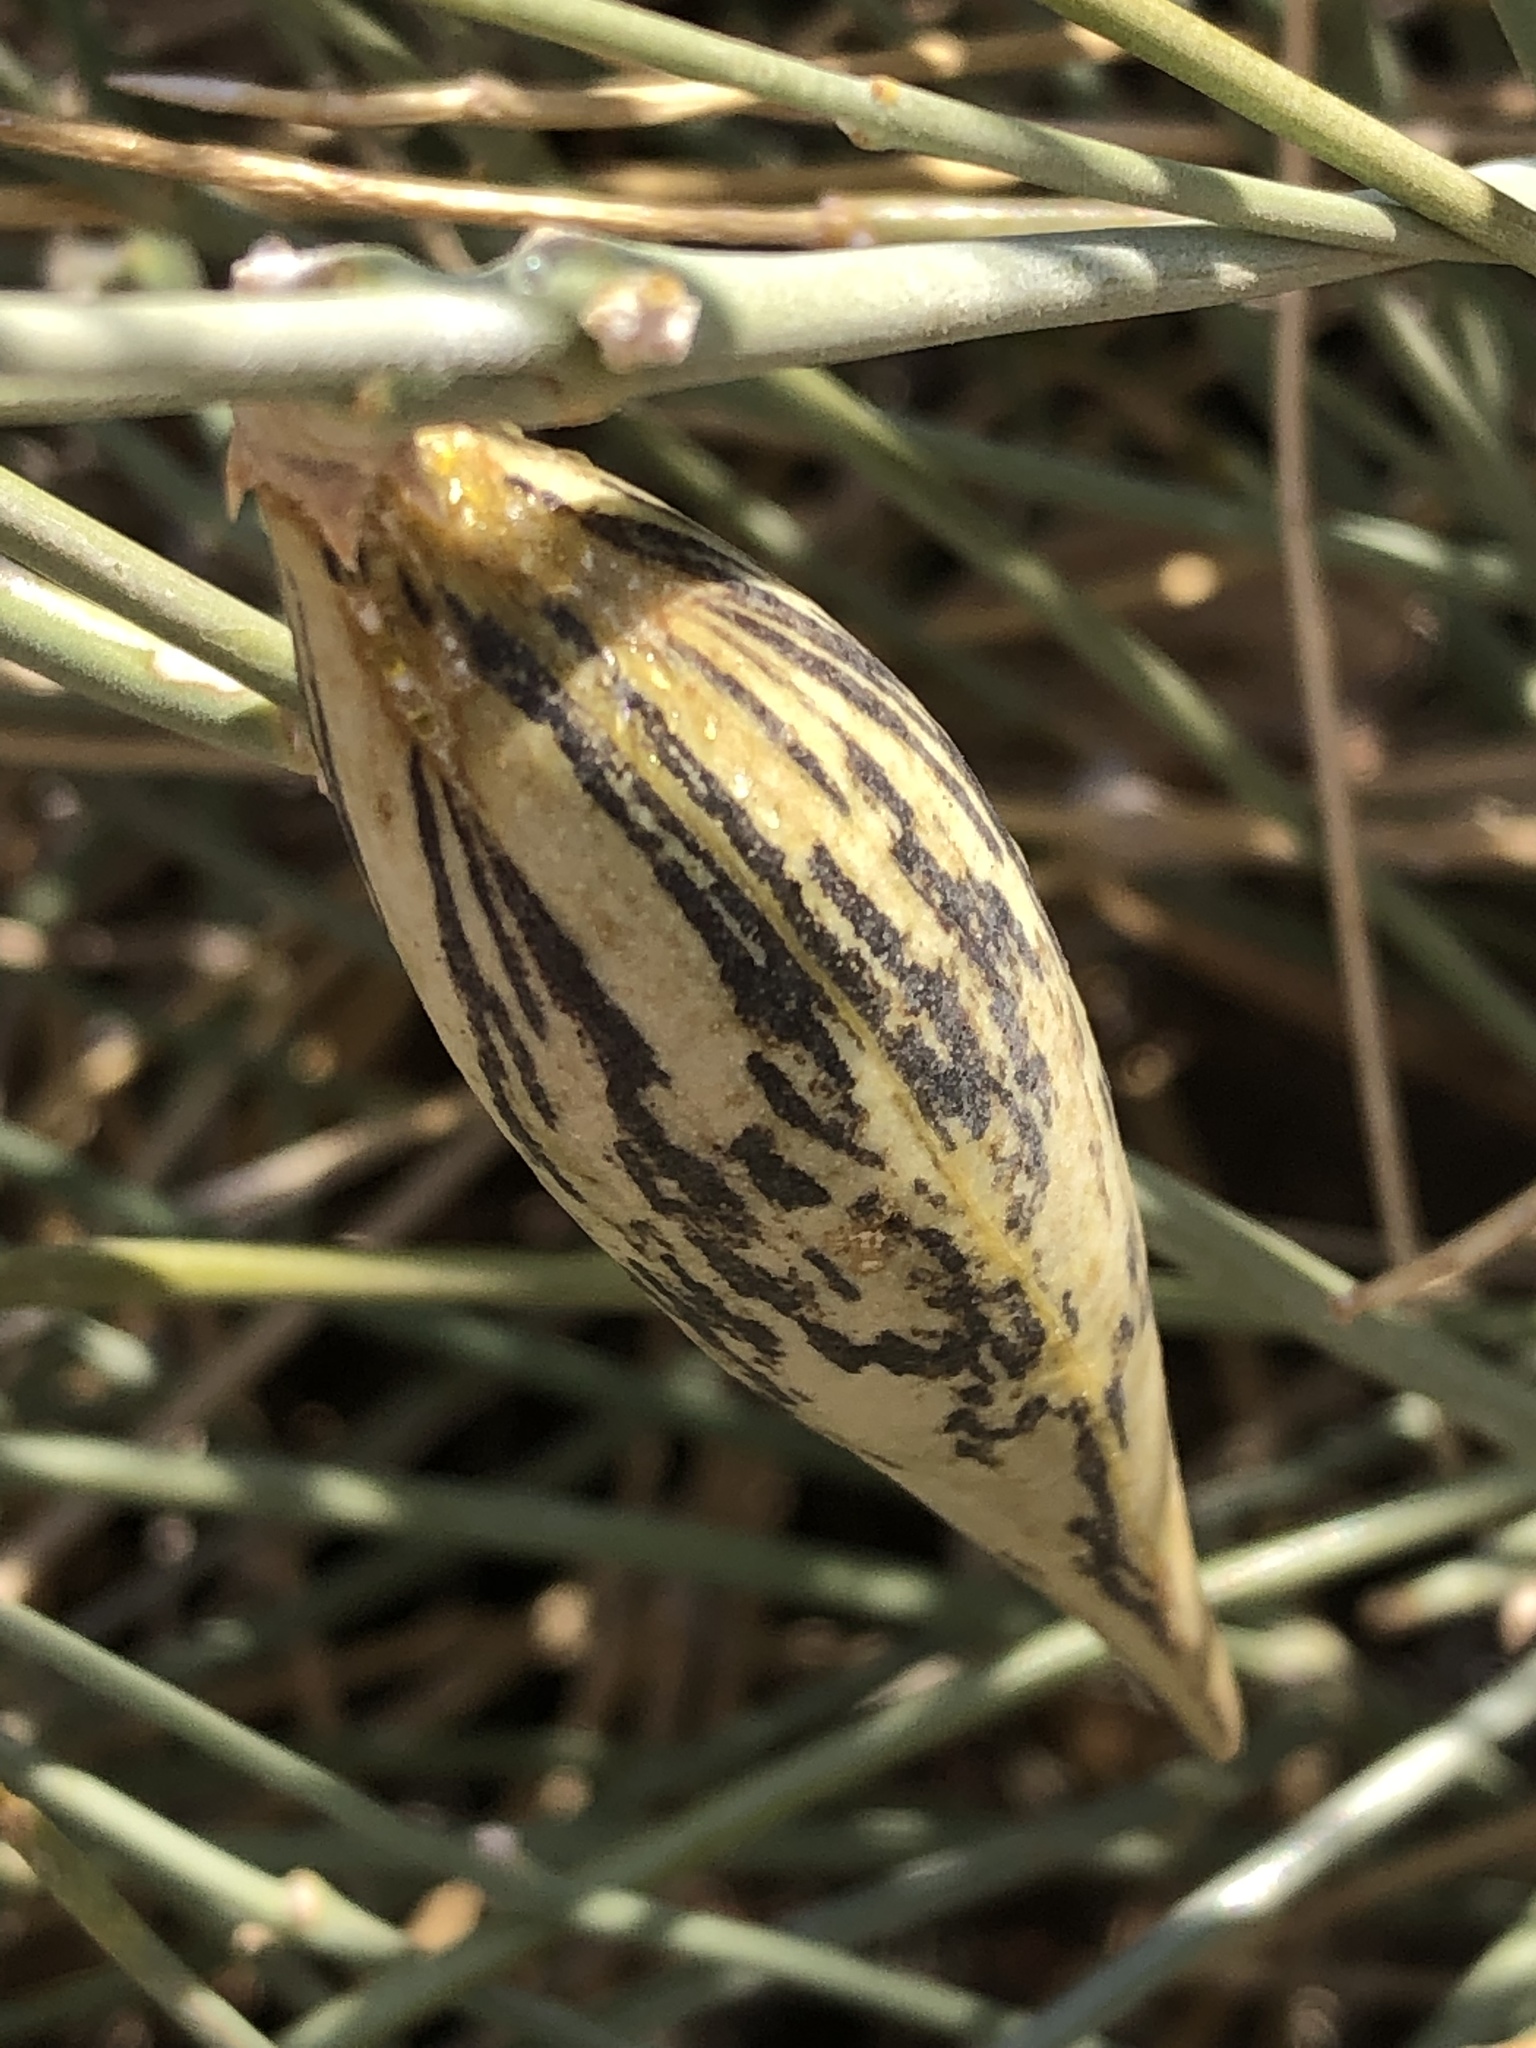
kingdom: Plantae
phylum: Tracheophyta
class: Magnoliopsida
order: Gentianales
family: Apocynaceae
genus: Orthanthera
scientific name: Orthanthera albida
